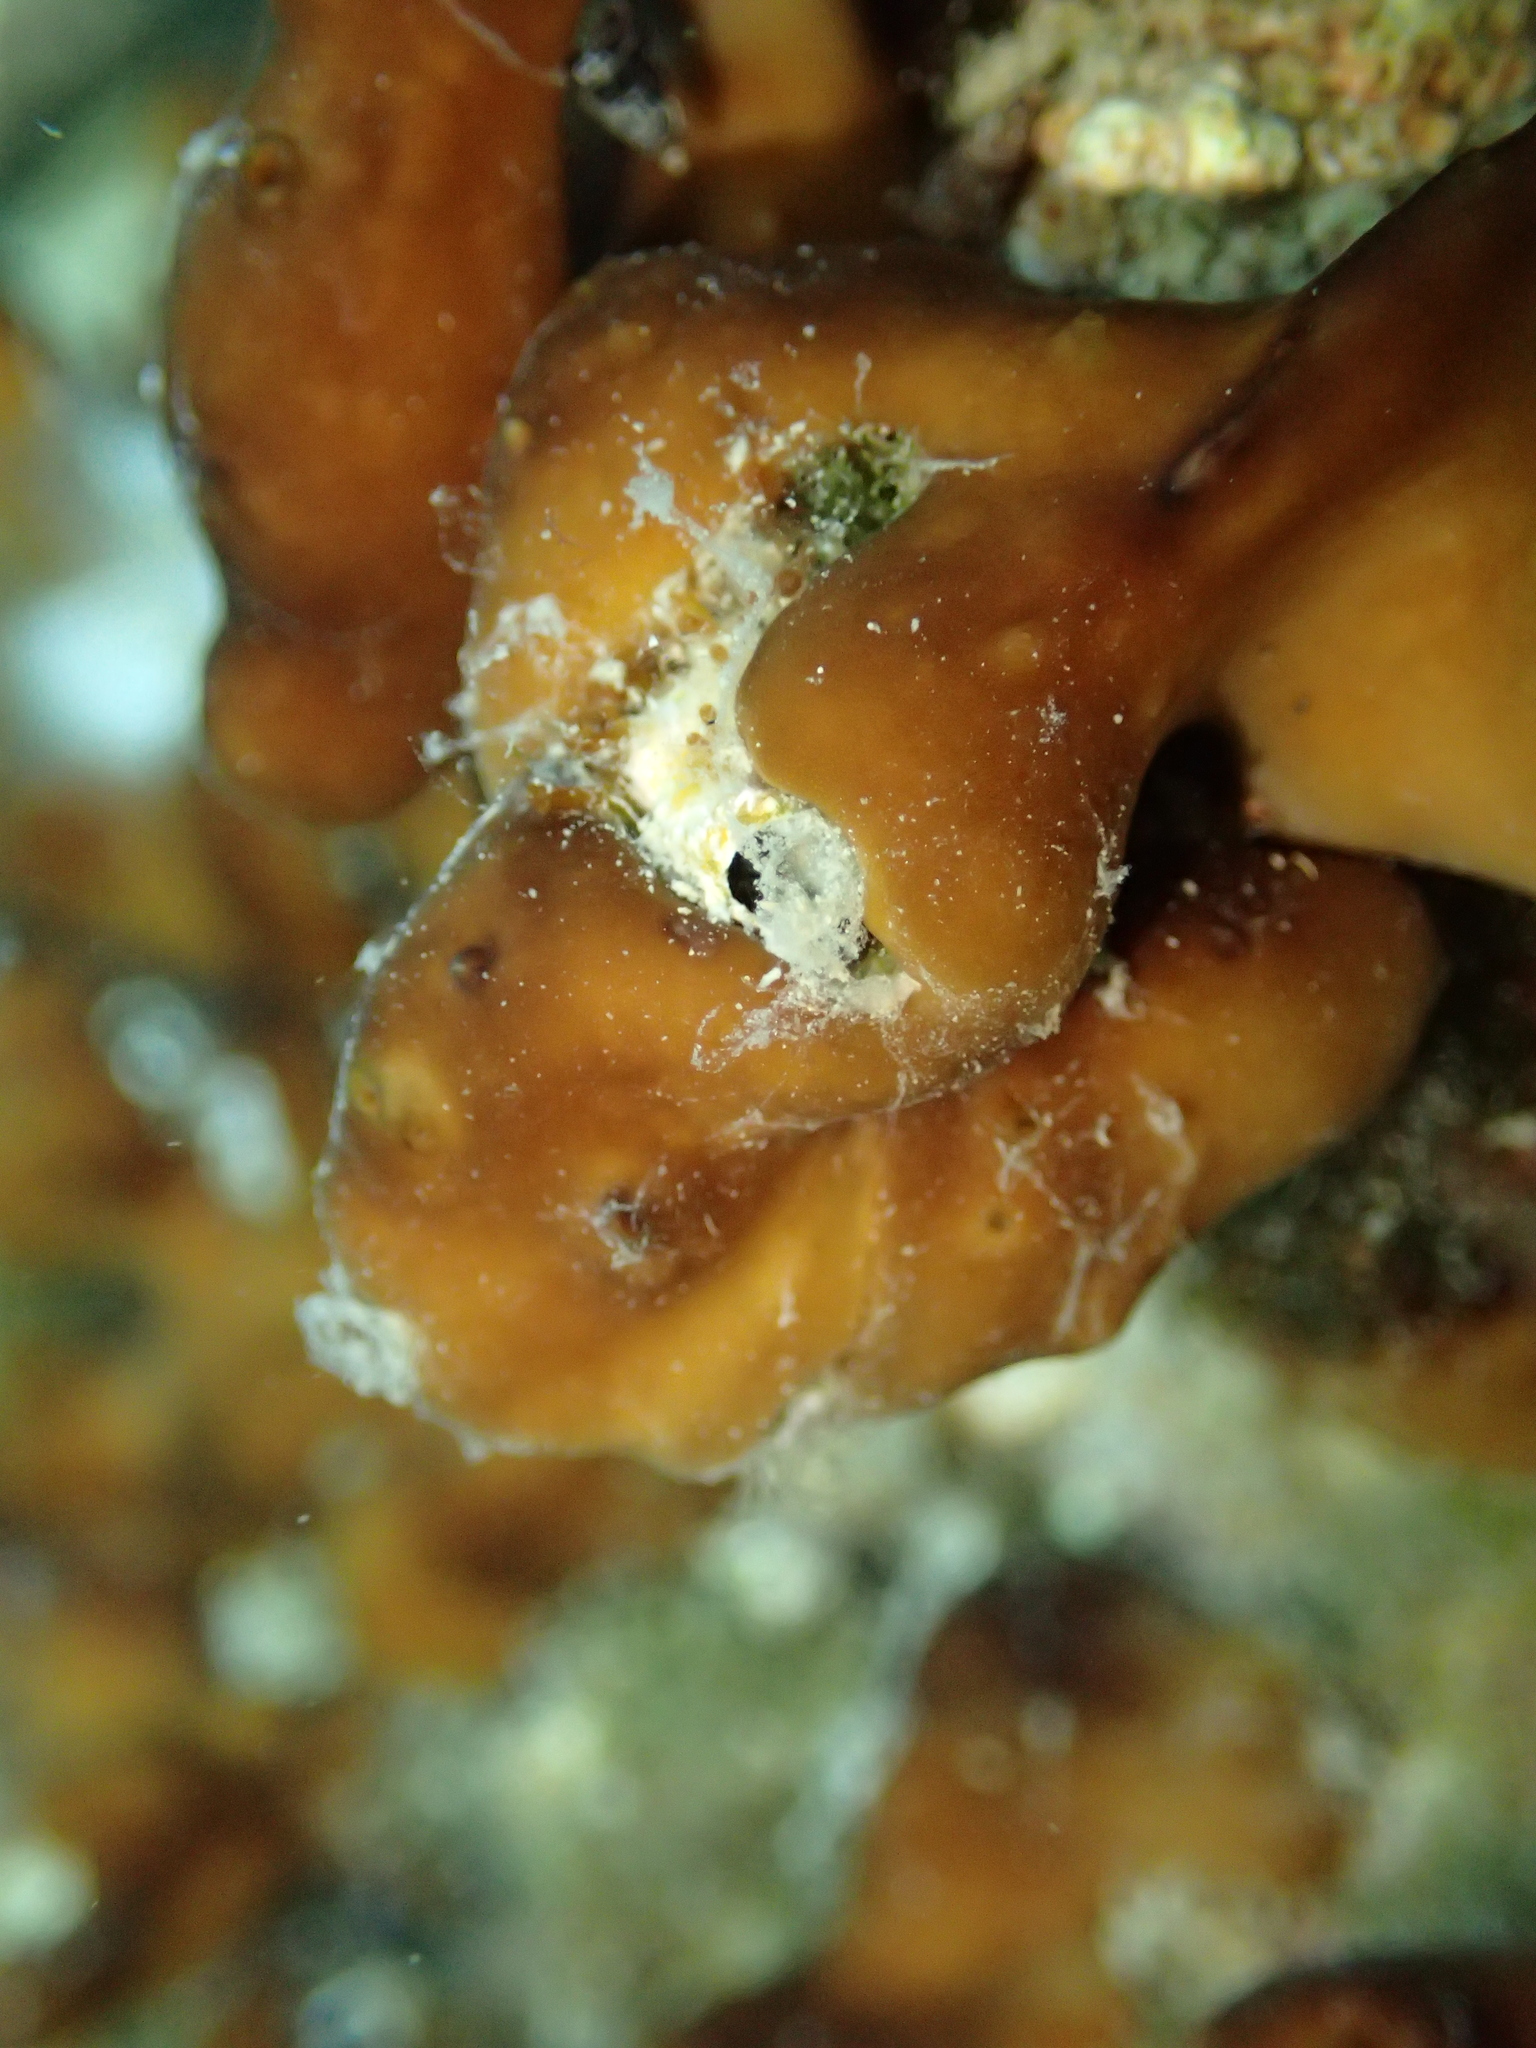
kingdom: Animalia
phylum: Porifera
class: Demospongiae
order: Chondrillida
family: Chondrillidae
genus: Chondrilla
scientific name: Chondrilla nucula
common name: Chicken liver sponge
